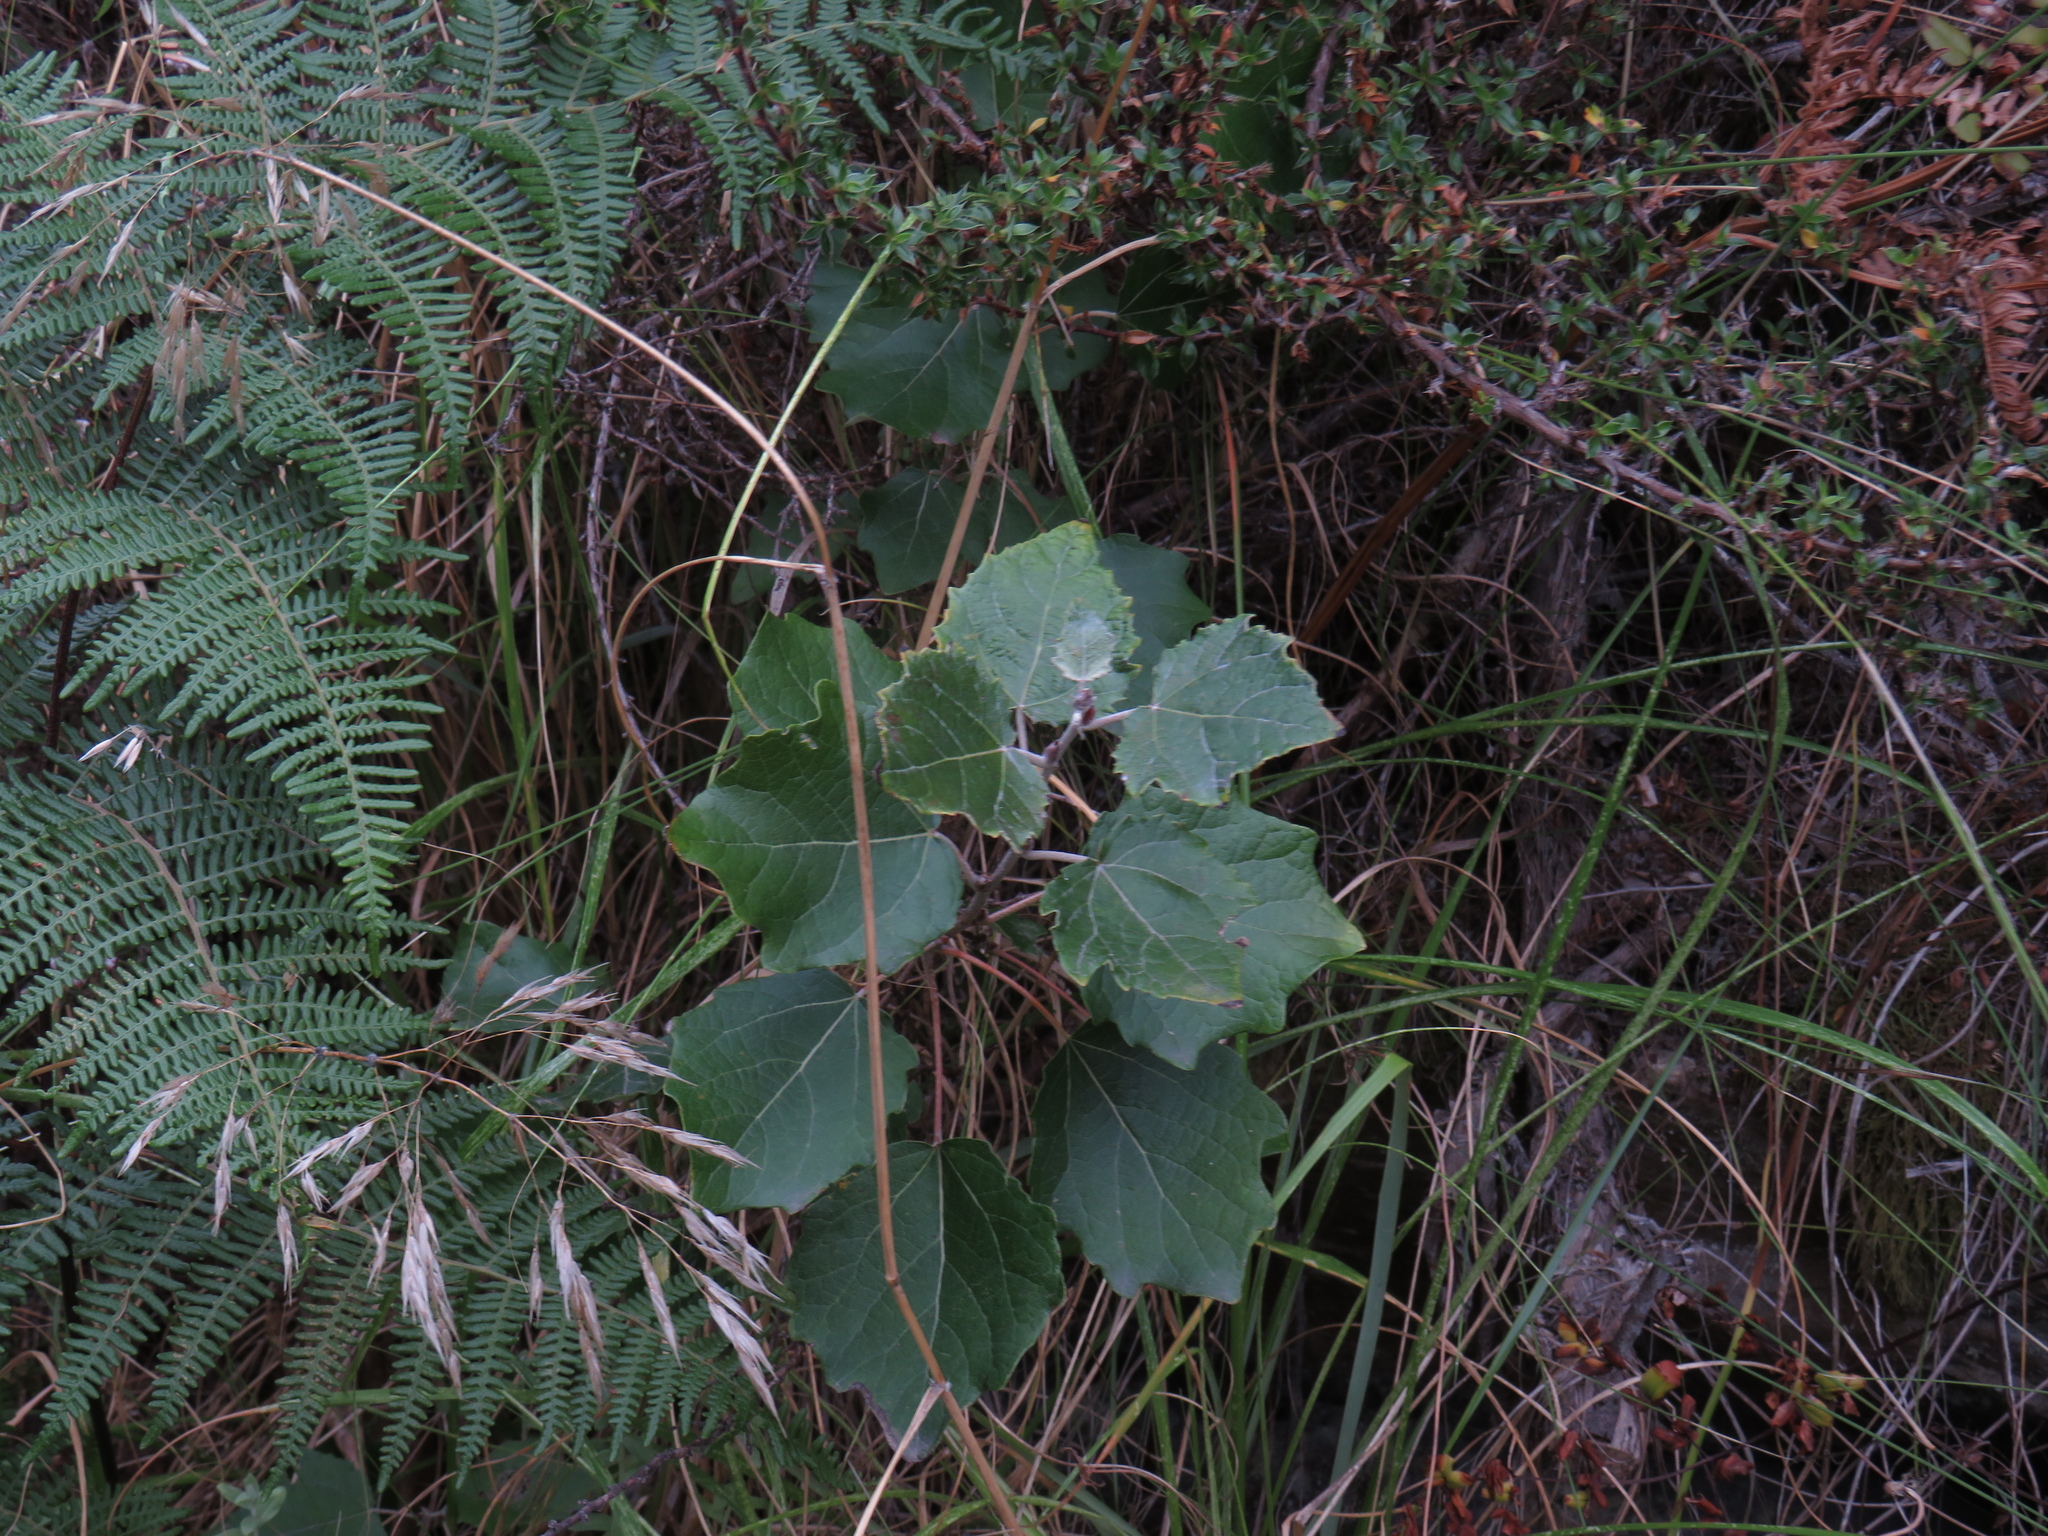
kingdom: Plantae
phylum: Tracheophyta
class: Magnoliopsida
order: Malpighiales
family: Salicaceae
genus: Populus
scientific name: Populus canescens
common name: Gray poplar
